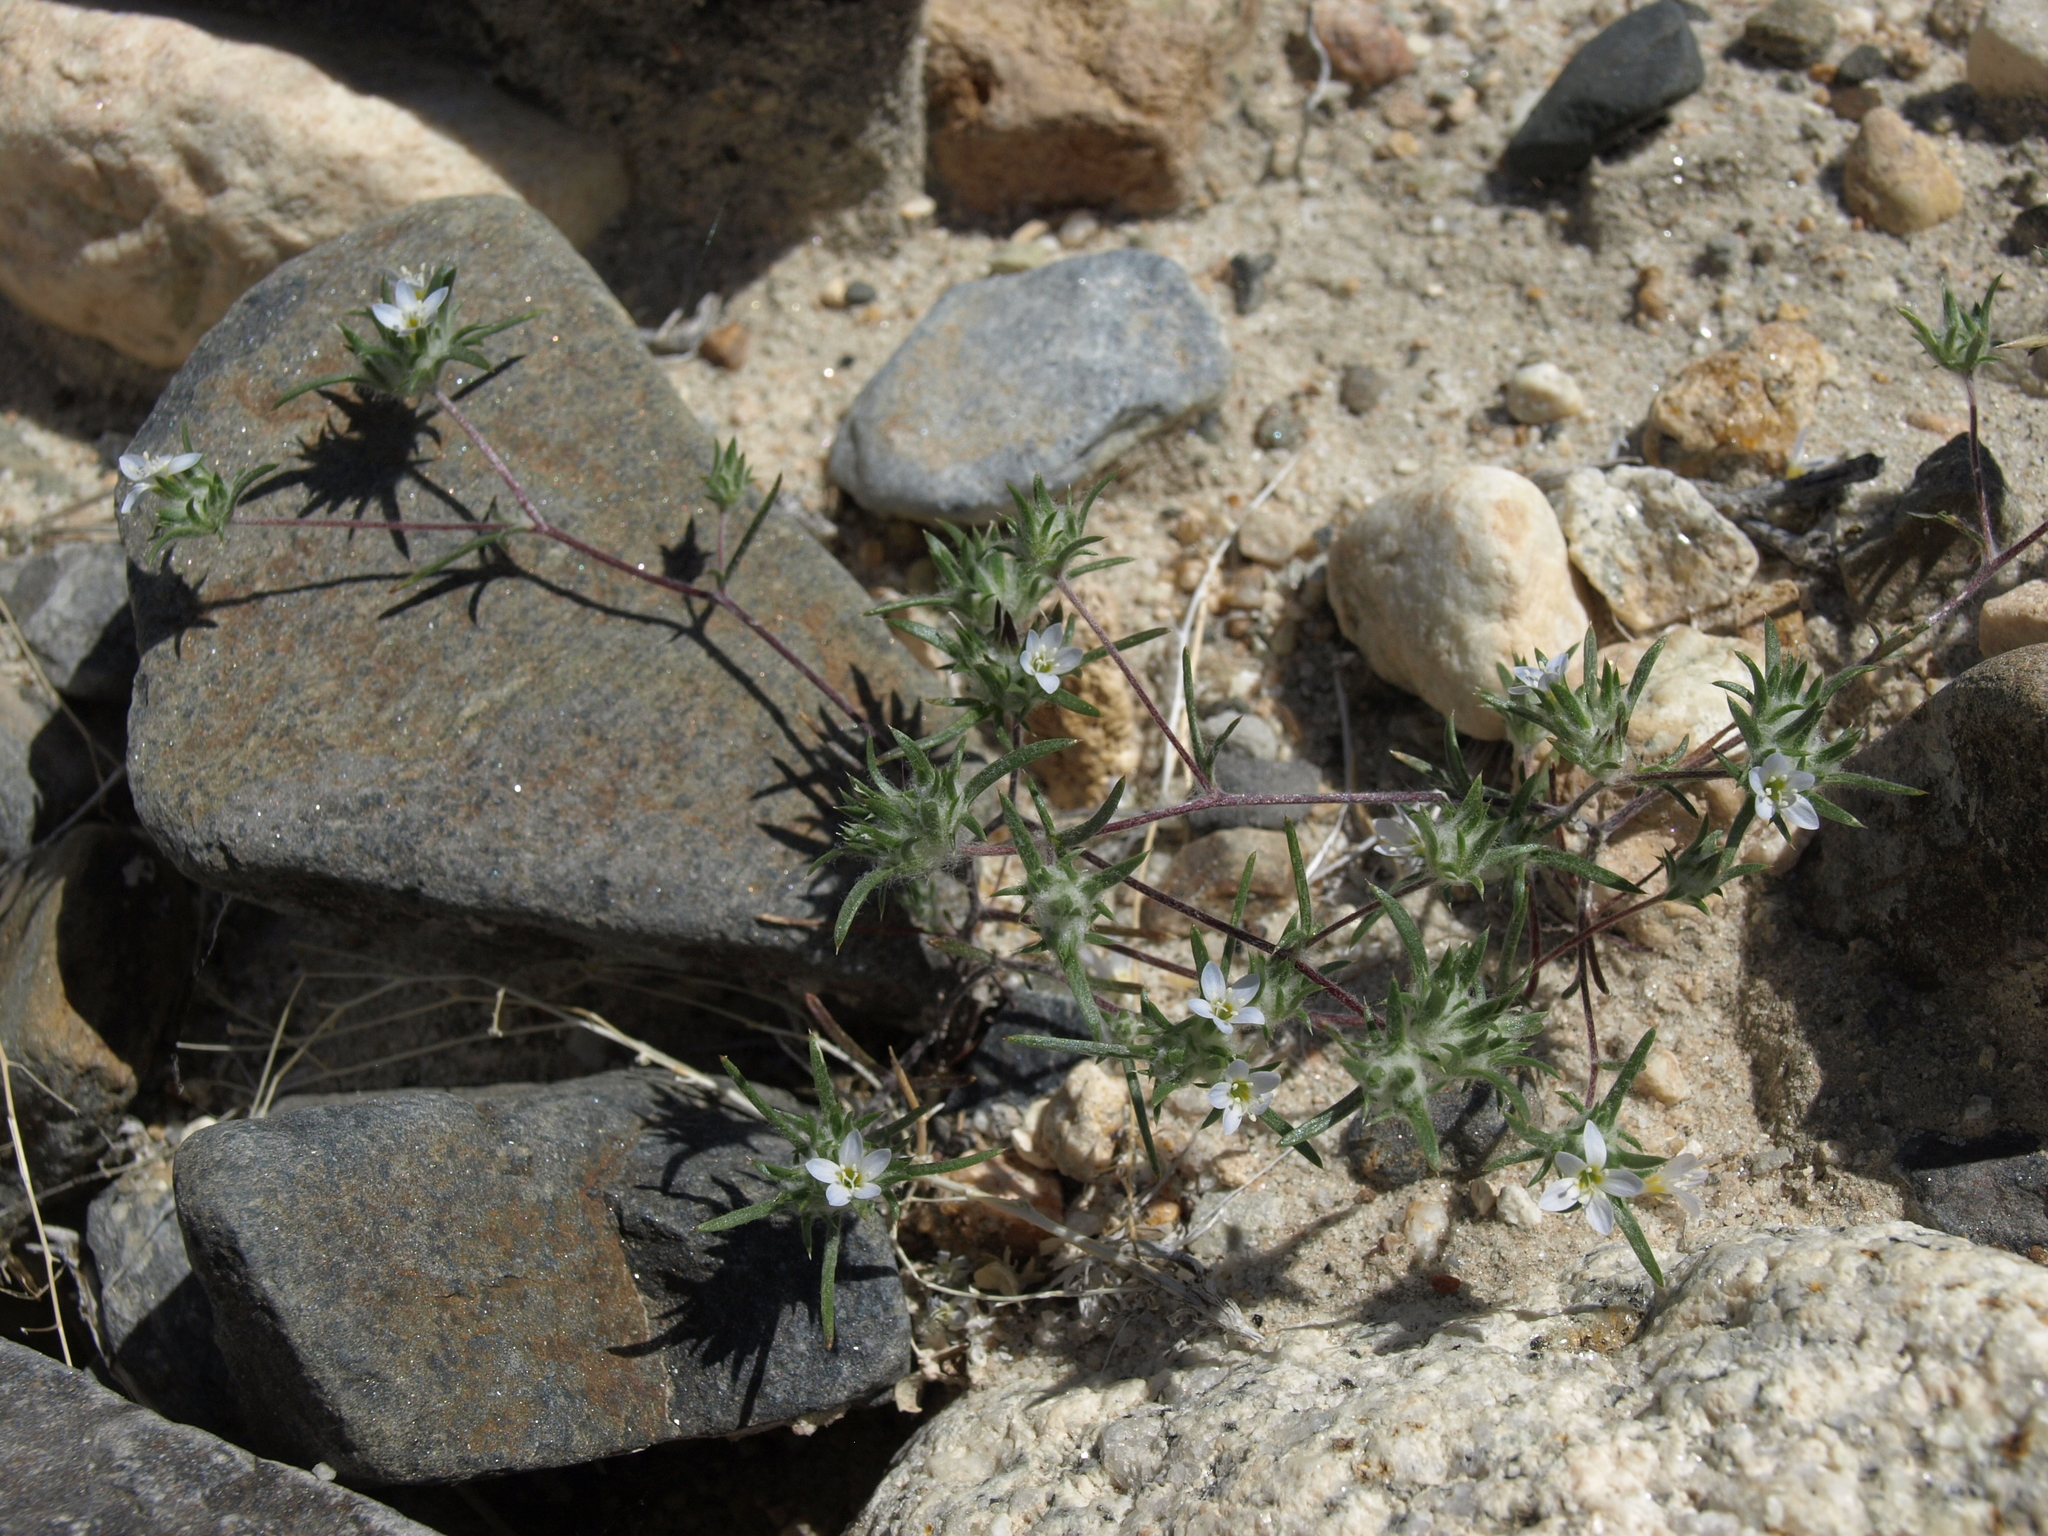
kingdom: Plantae
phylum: Tracheophyta
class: Magnoliopsida
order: Ericales
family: Polemoniaceae
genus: Eriastrum
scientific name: Eriastrum diffusum
